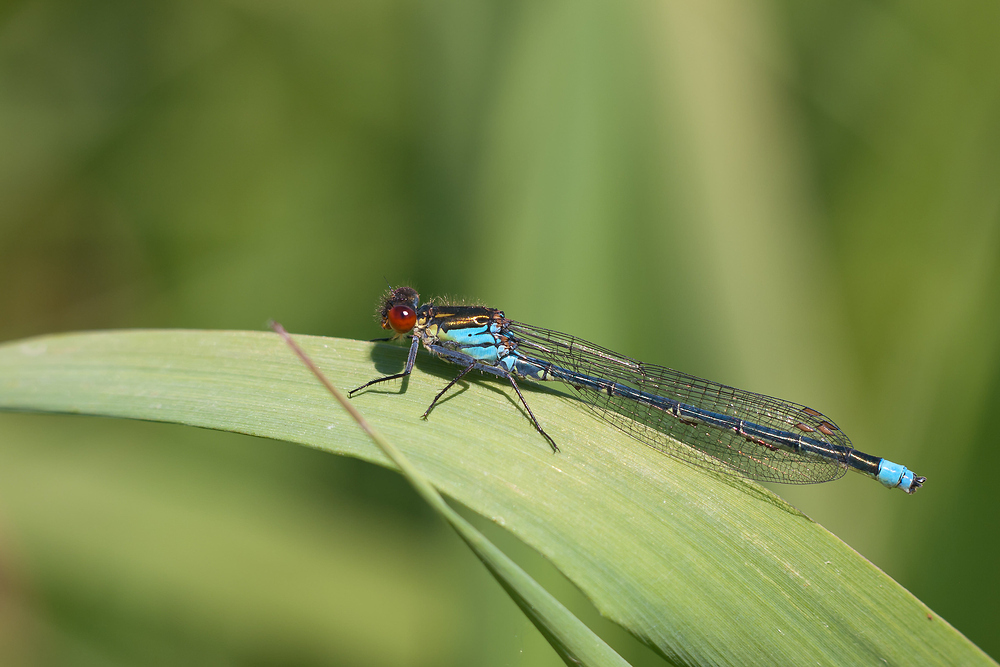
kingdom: Animalia
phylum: Arthropoda
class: Insecta
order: Odonata
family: Coenagrionidae
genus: Erythromma
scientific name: Erythromma najas
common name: Red-eyed damselfly
